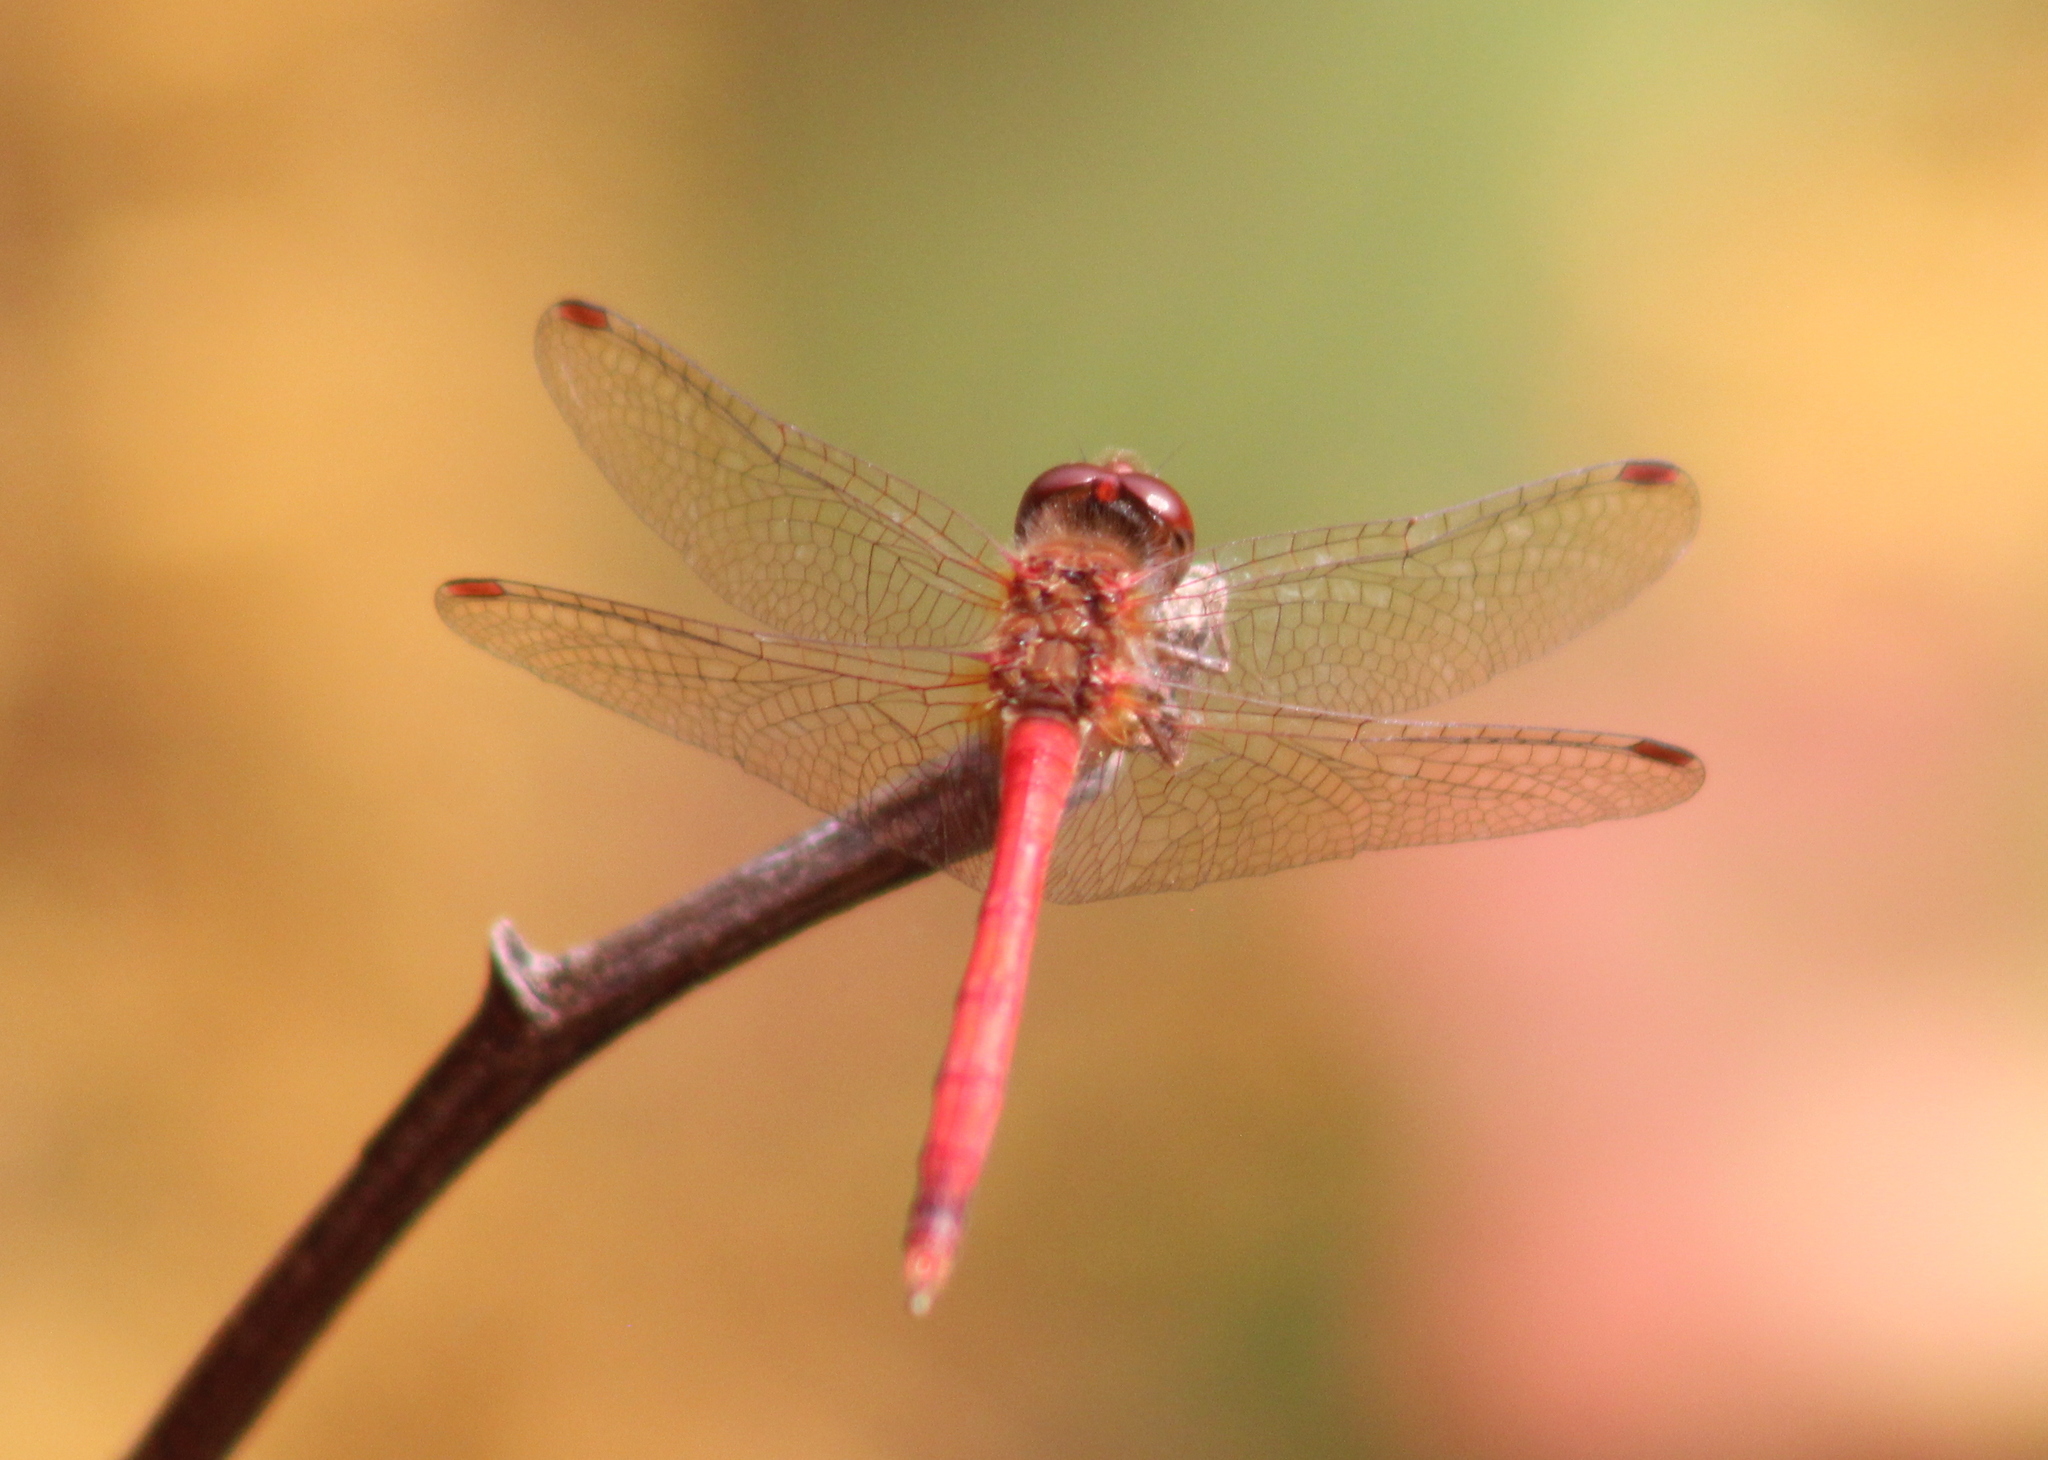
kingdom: Animalia
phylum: Arthropoda
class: Insecta
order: Odonata
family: Libellulidae
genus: Sympetrum
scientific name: Sympetrum vicinum
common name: Autumn meadowhawk
